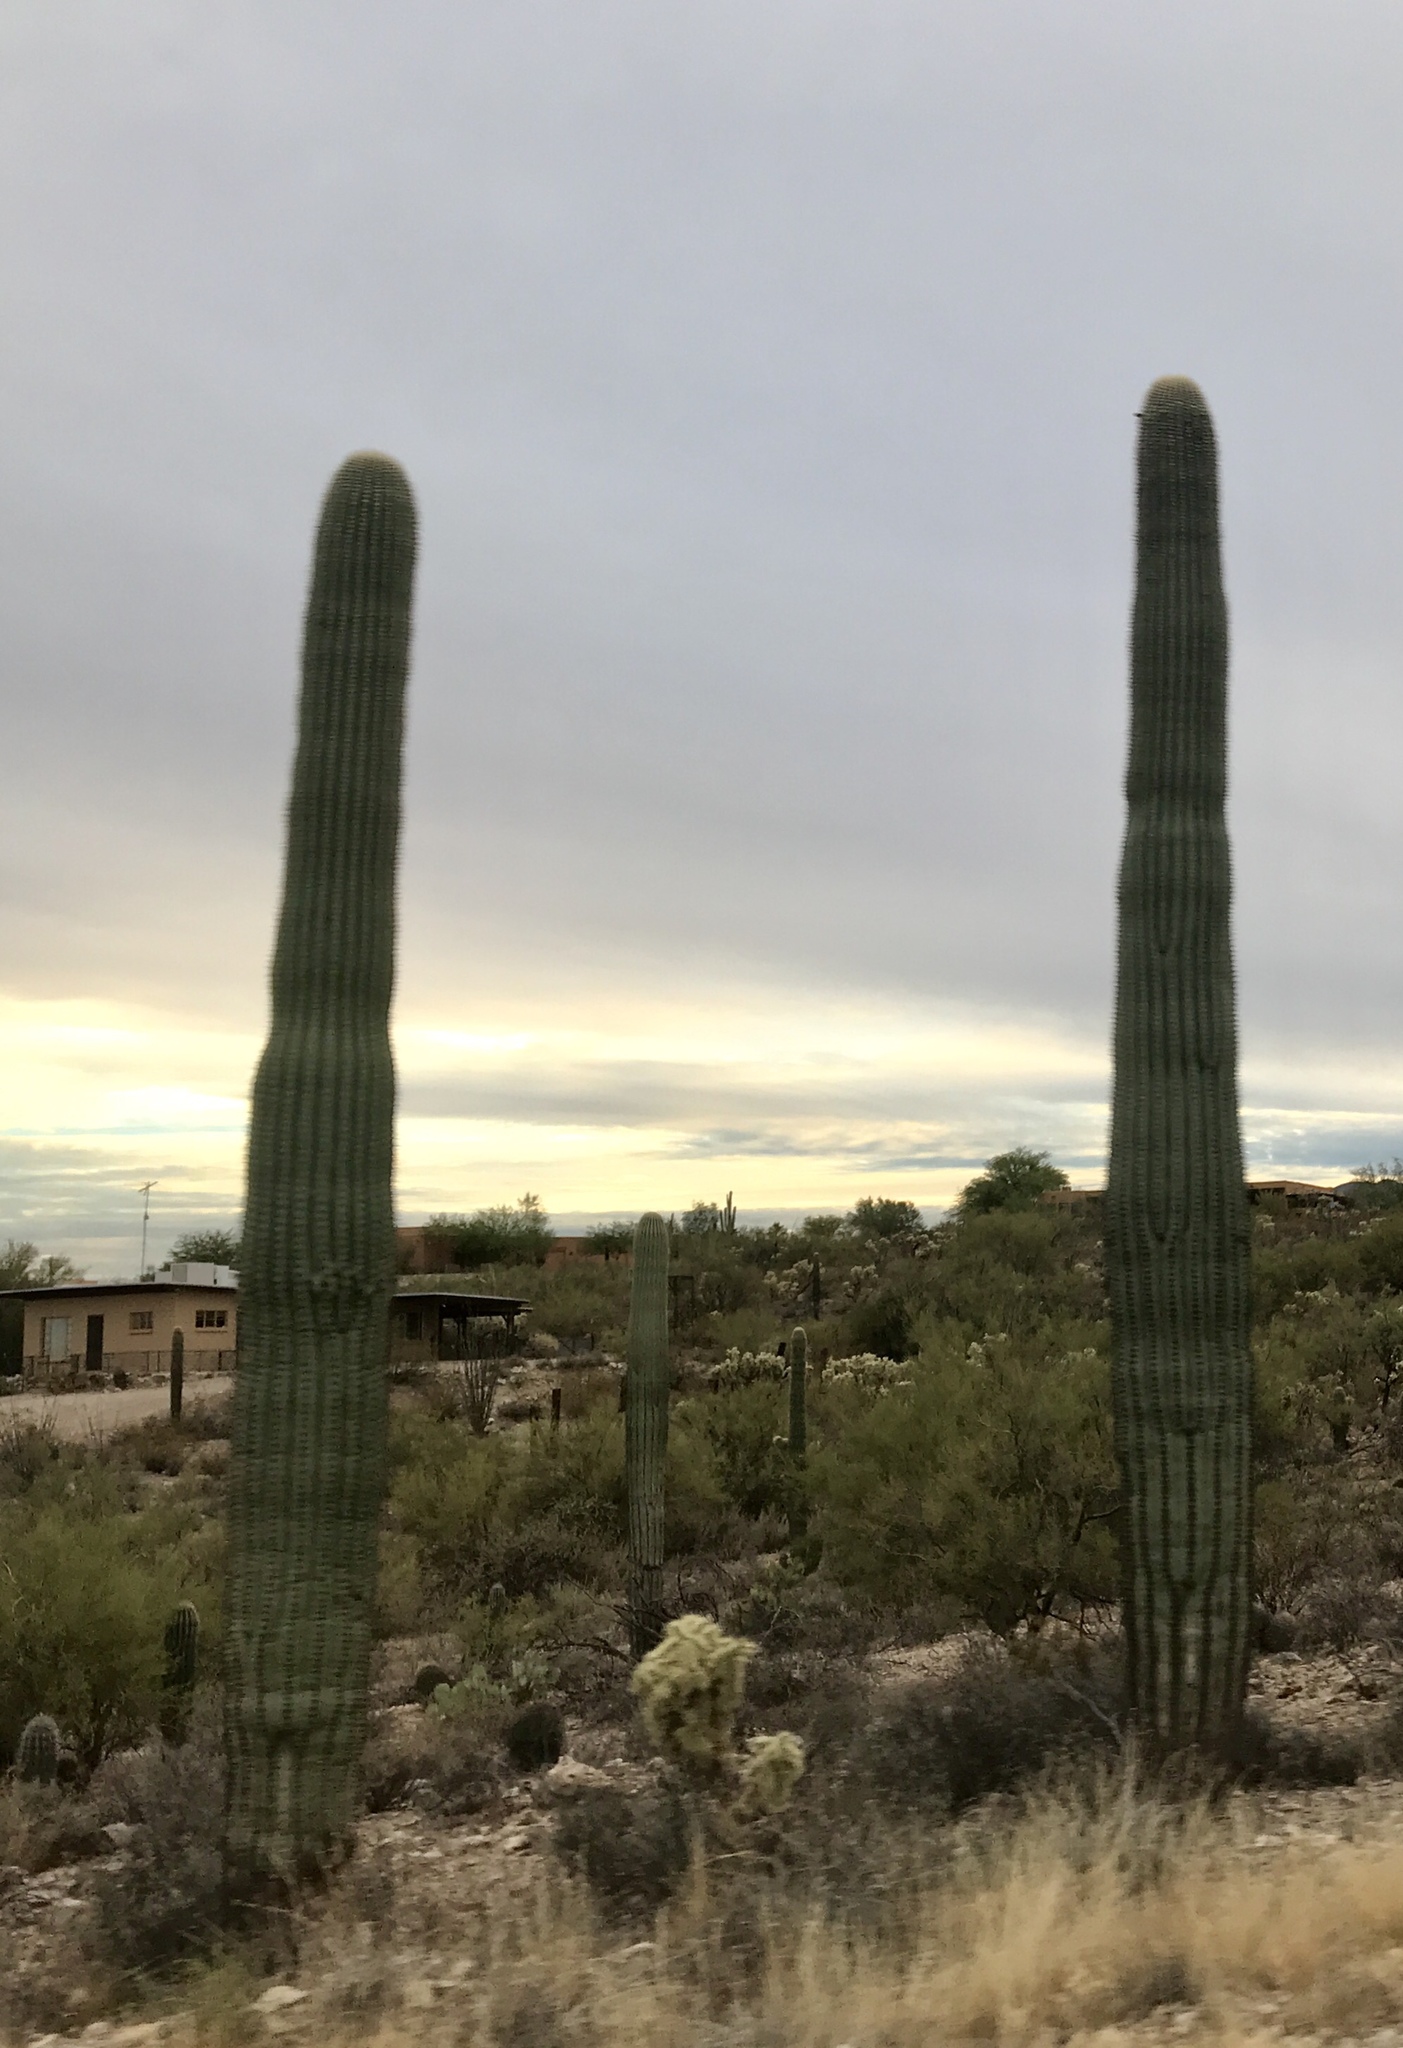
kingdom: Plantae
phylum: Tracheophyta
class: Magnoliopsida
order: Caryophyllales
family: Cactaceae
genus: Carnegiea
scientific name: Carnegiea gigantea
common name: Saguaro
